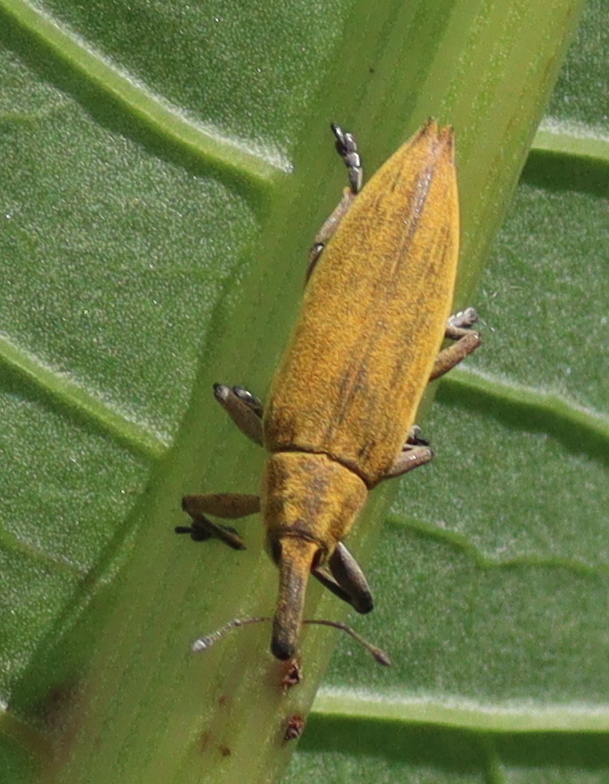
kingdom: Animalia
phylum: Arthropoda
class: Insecta
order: Coleoptera
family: Curculionidae
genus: Lixus
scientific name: Lixus iridis
